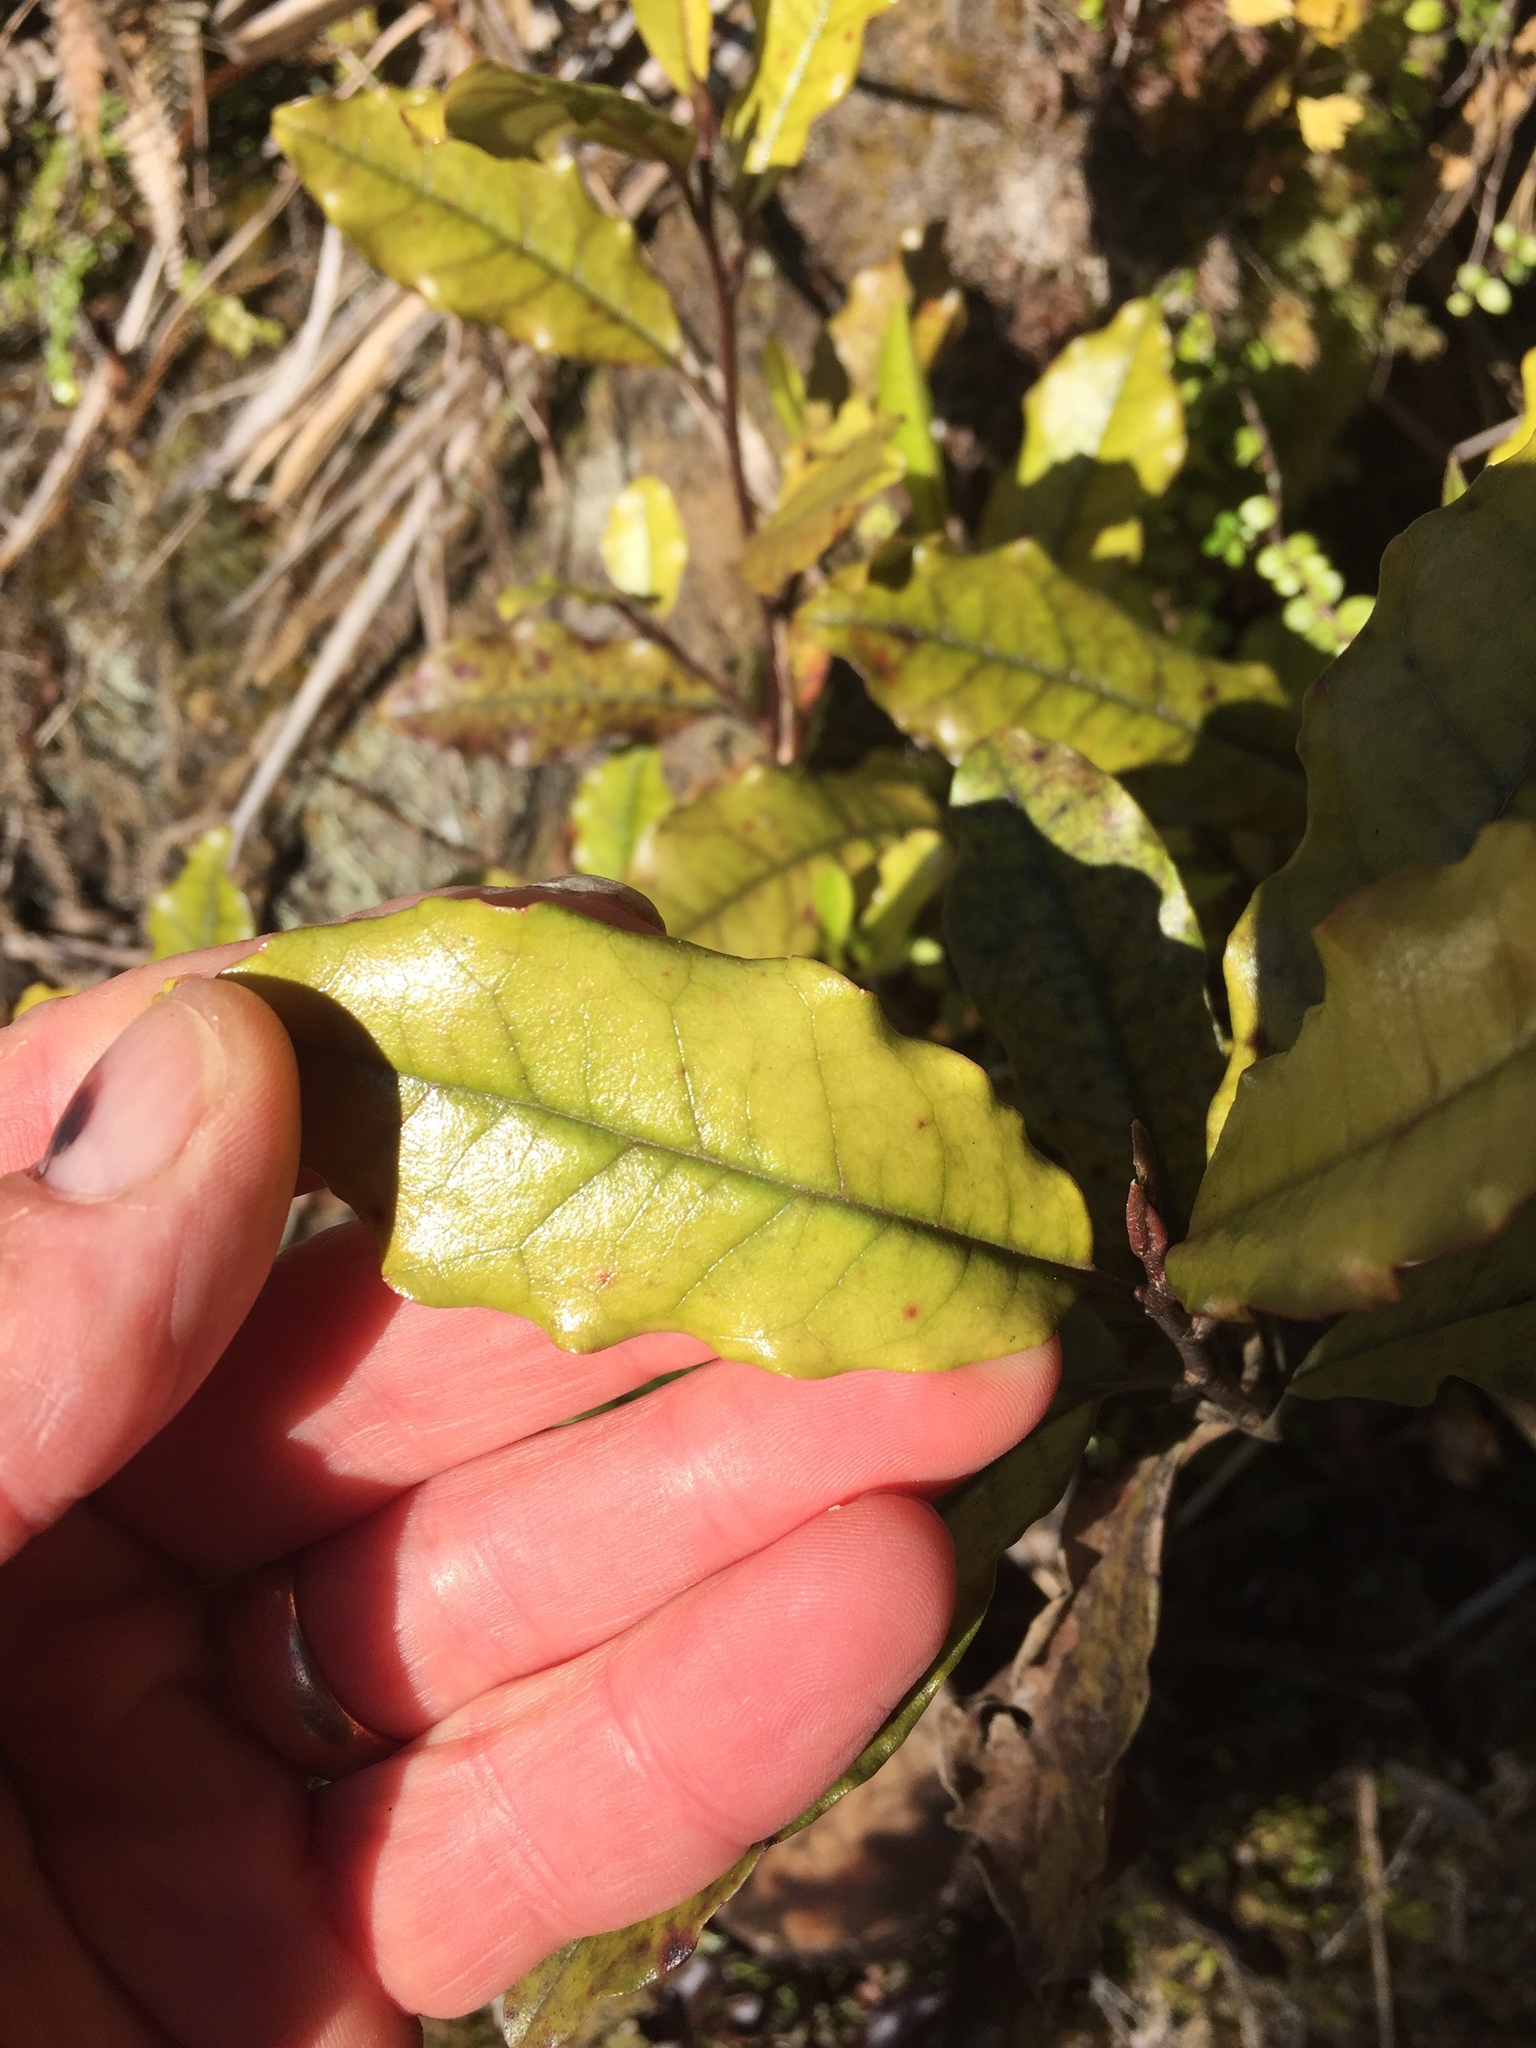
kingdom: Plantae
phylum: Tracheophyta
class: Magnoliopsida
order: Paracryphiales
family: Paracryphiaceae
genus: Quintinia
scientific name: Quintinia serrata
